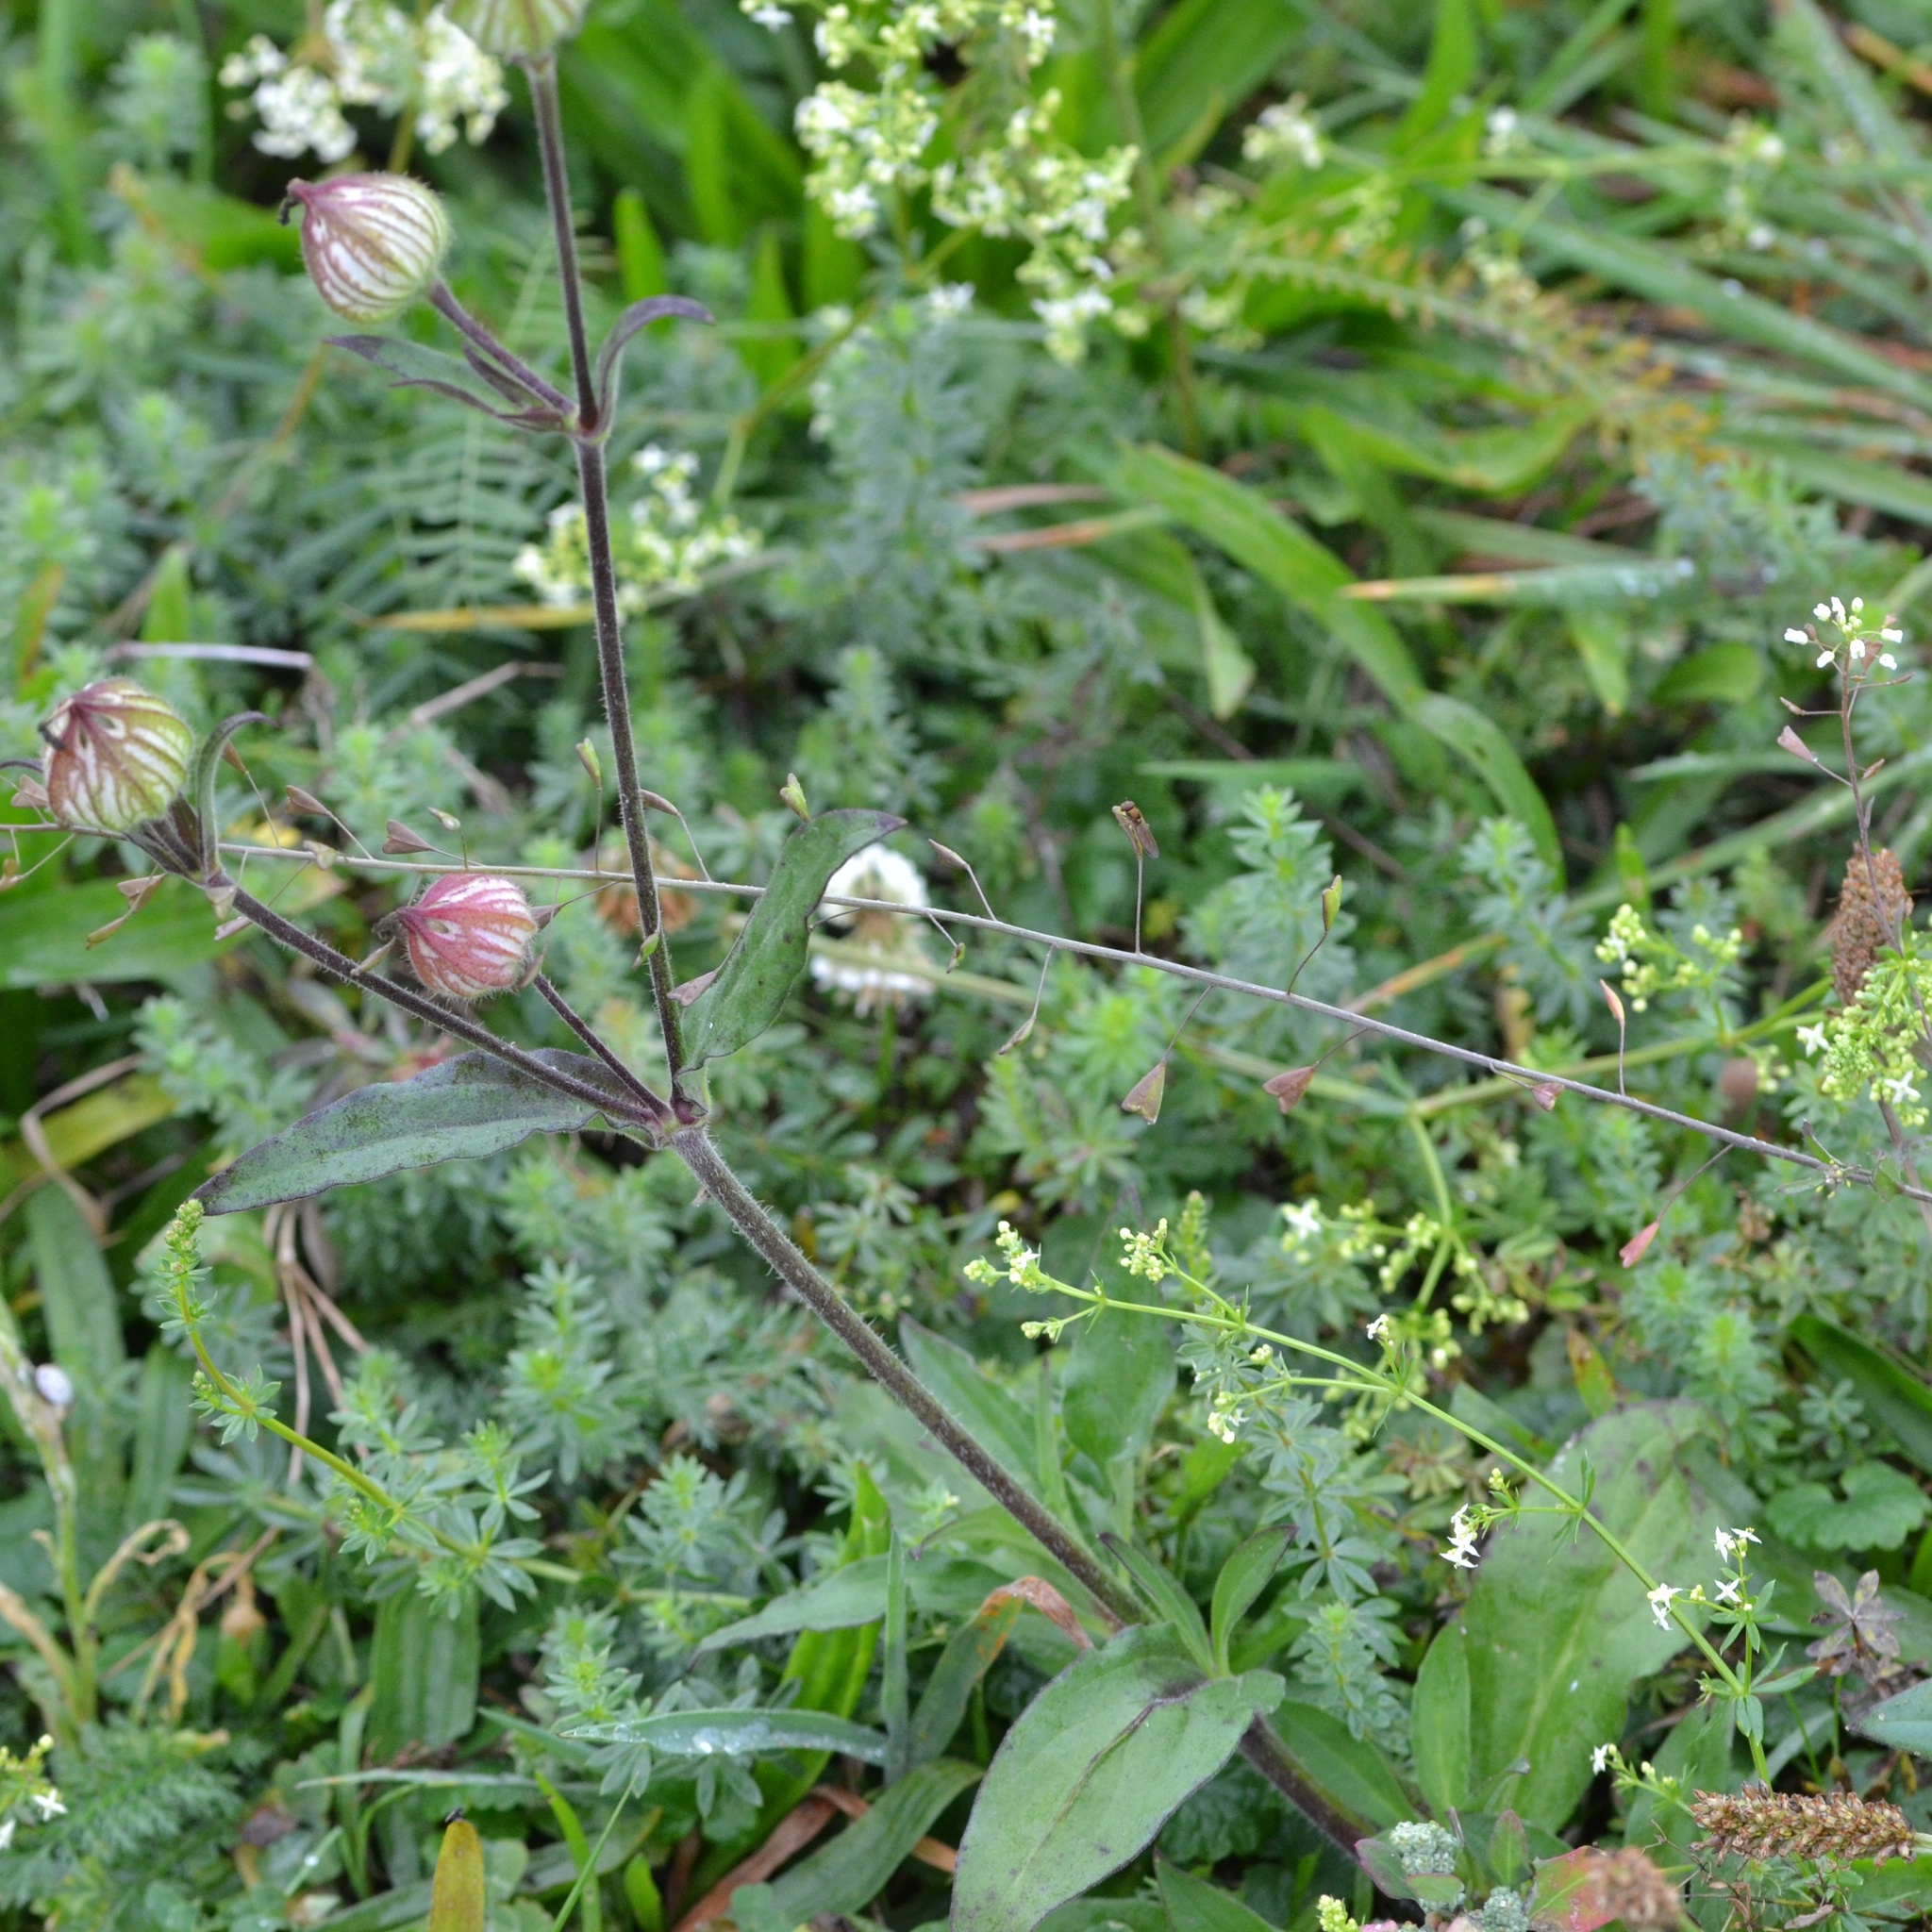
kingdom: Plantae
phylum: Tracheophyta
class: Magnoliopsida
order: Caryophyllales
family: Caryophyllaceae
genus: Silene
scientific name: Silene latifolia
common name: White campion
